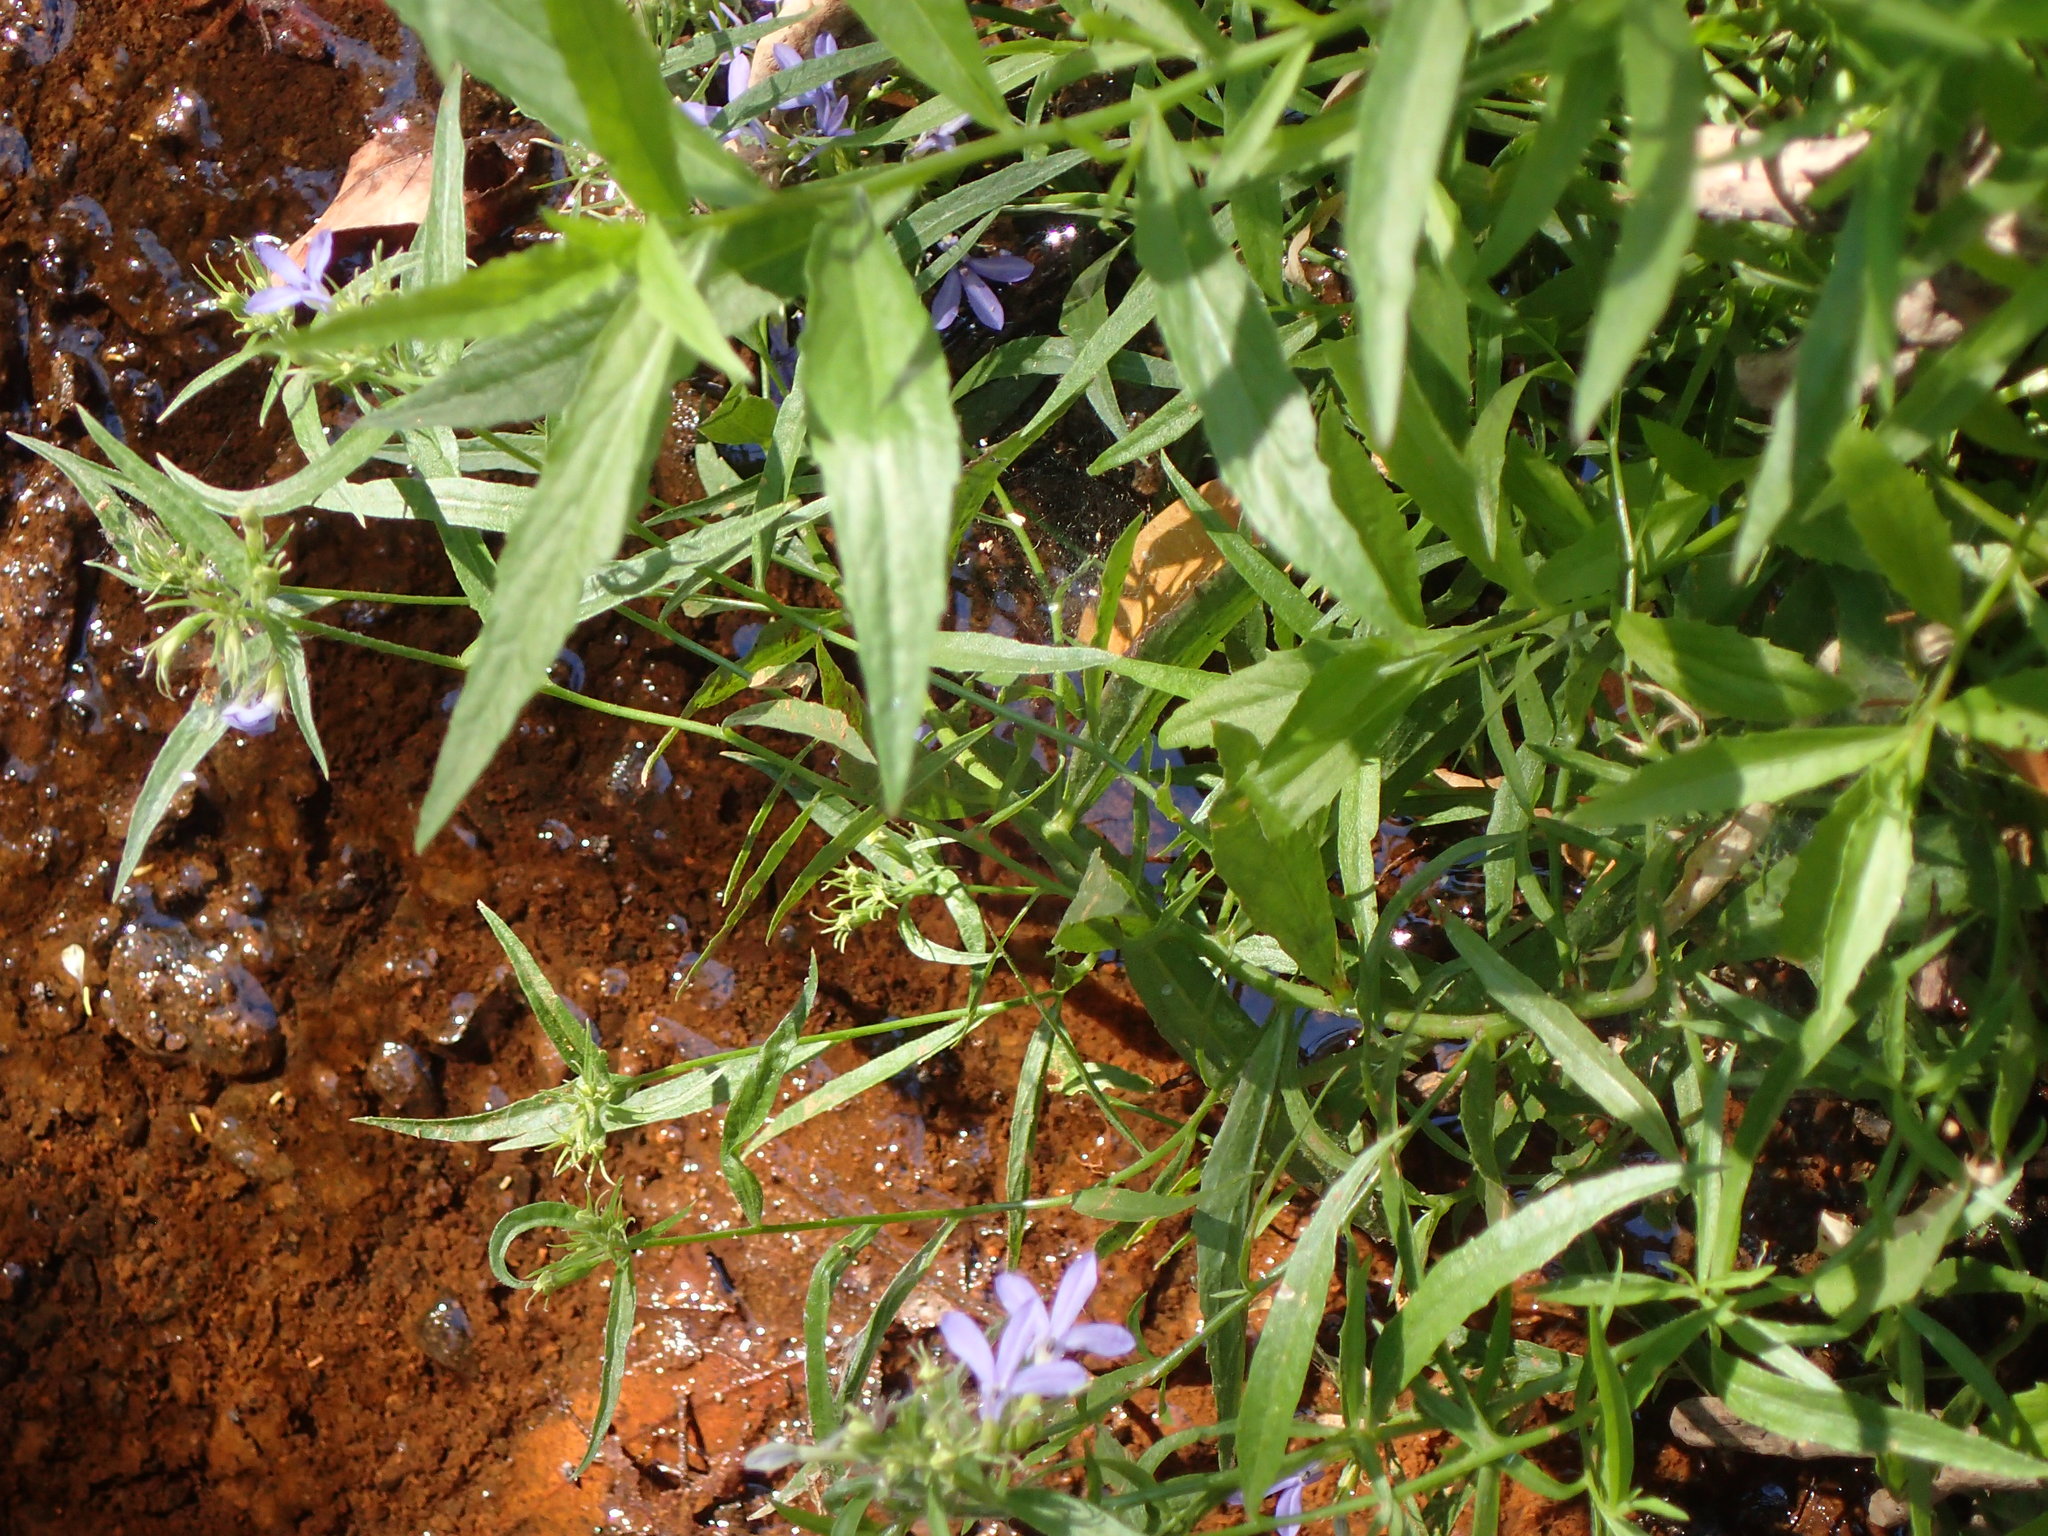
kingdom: Plantae
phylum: Tracheophyta
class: Magnoliopsida
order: Asterales
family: Campanulaceae
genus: Palmerella
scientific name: Palmerella debilis
